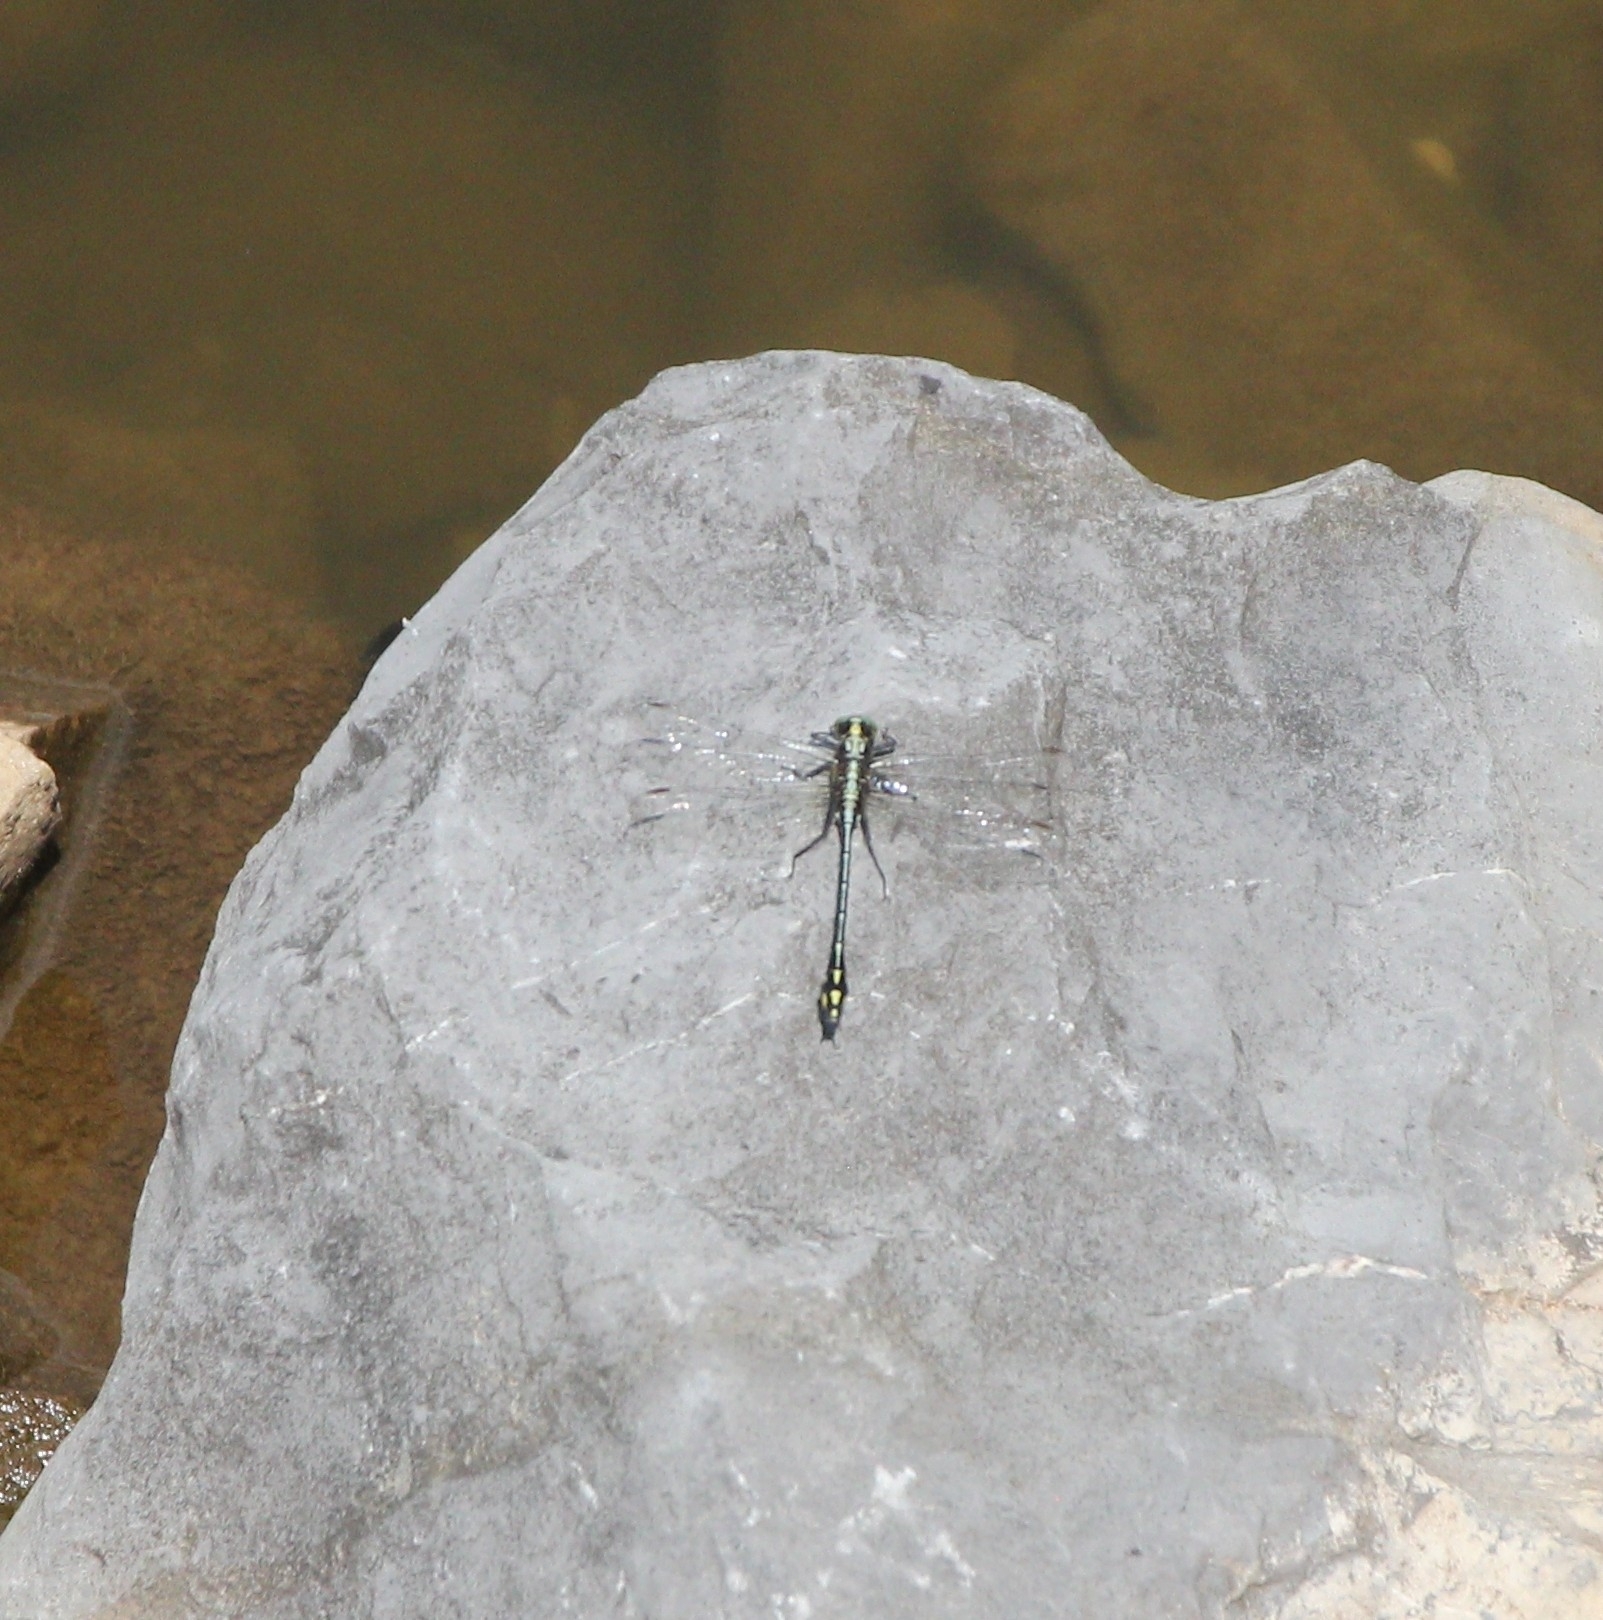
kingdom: Animalia
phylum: Arthropoda
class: Insecta
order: Odonata
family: Gomphidae
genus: Dromogomphus
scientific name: Dromogomphus spinosus
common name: Black-shouldered spinyleg
